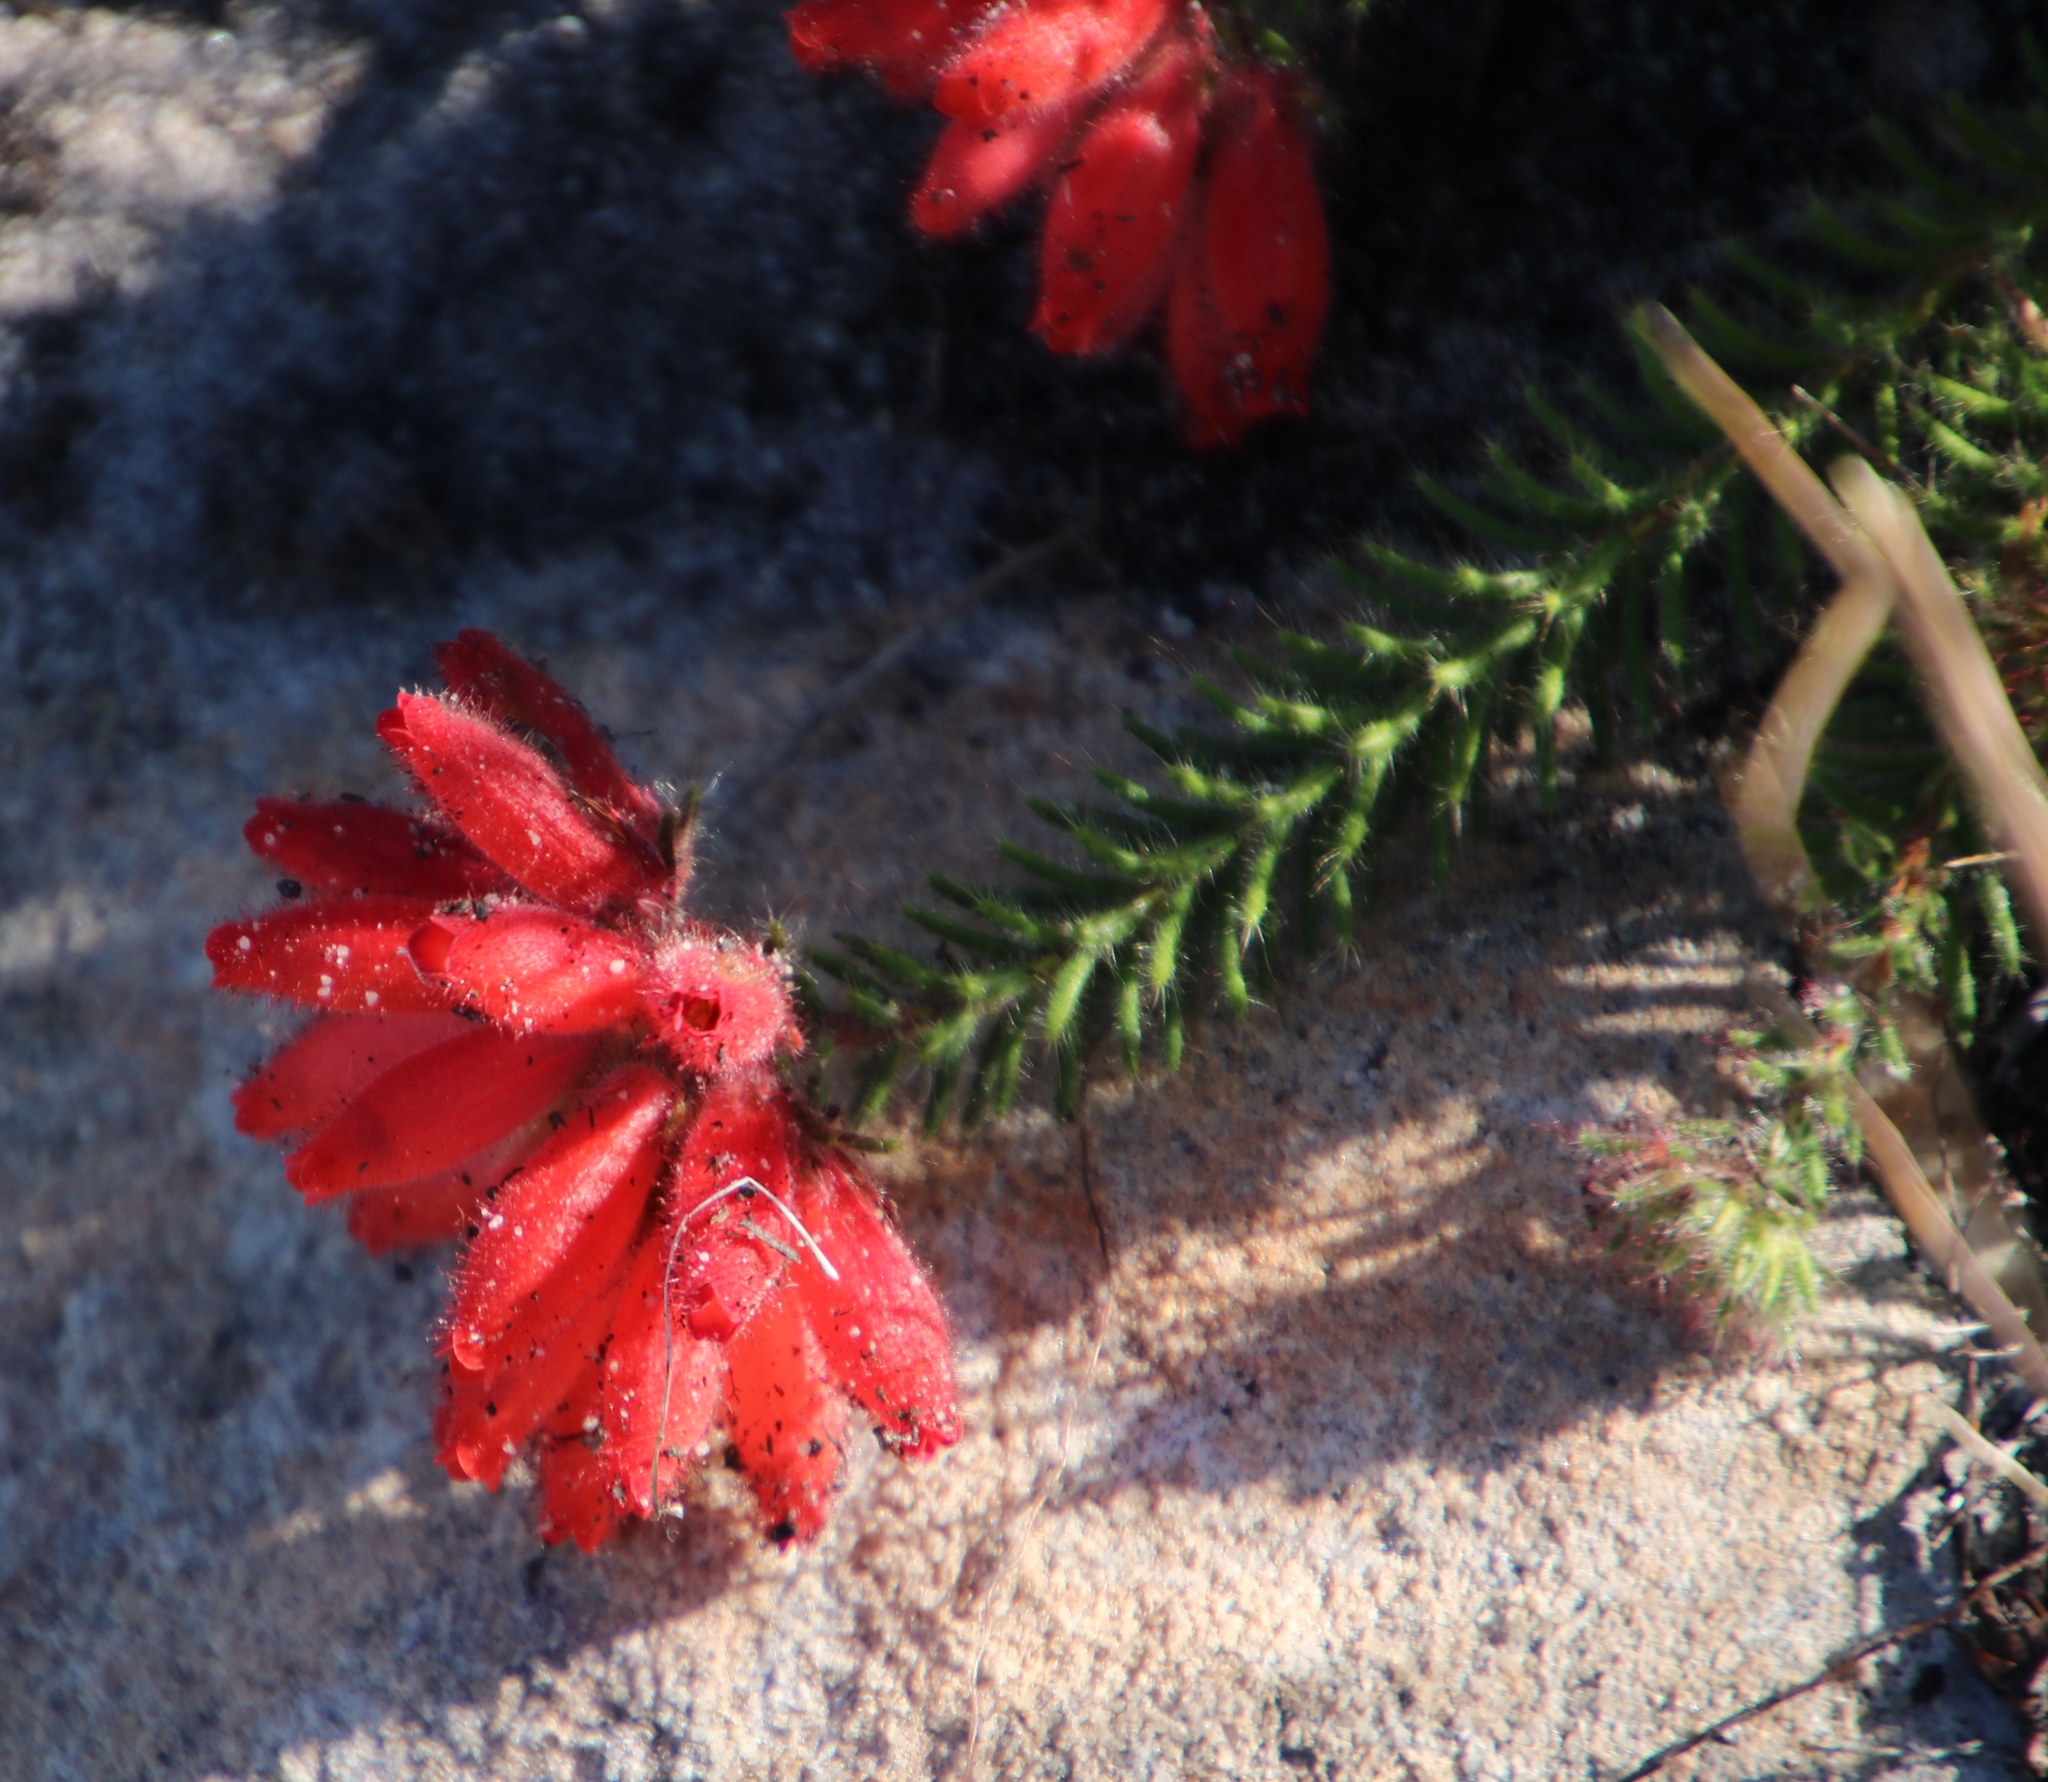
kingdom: Plantae
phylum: Tracheophyta
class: Magnoliopsida
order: Ericales
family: Ericaceae
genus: Erica
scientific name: Erica cerinthoides
